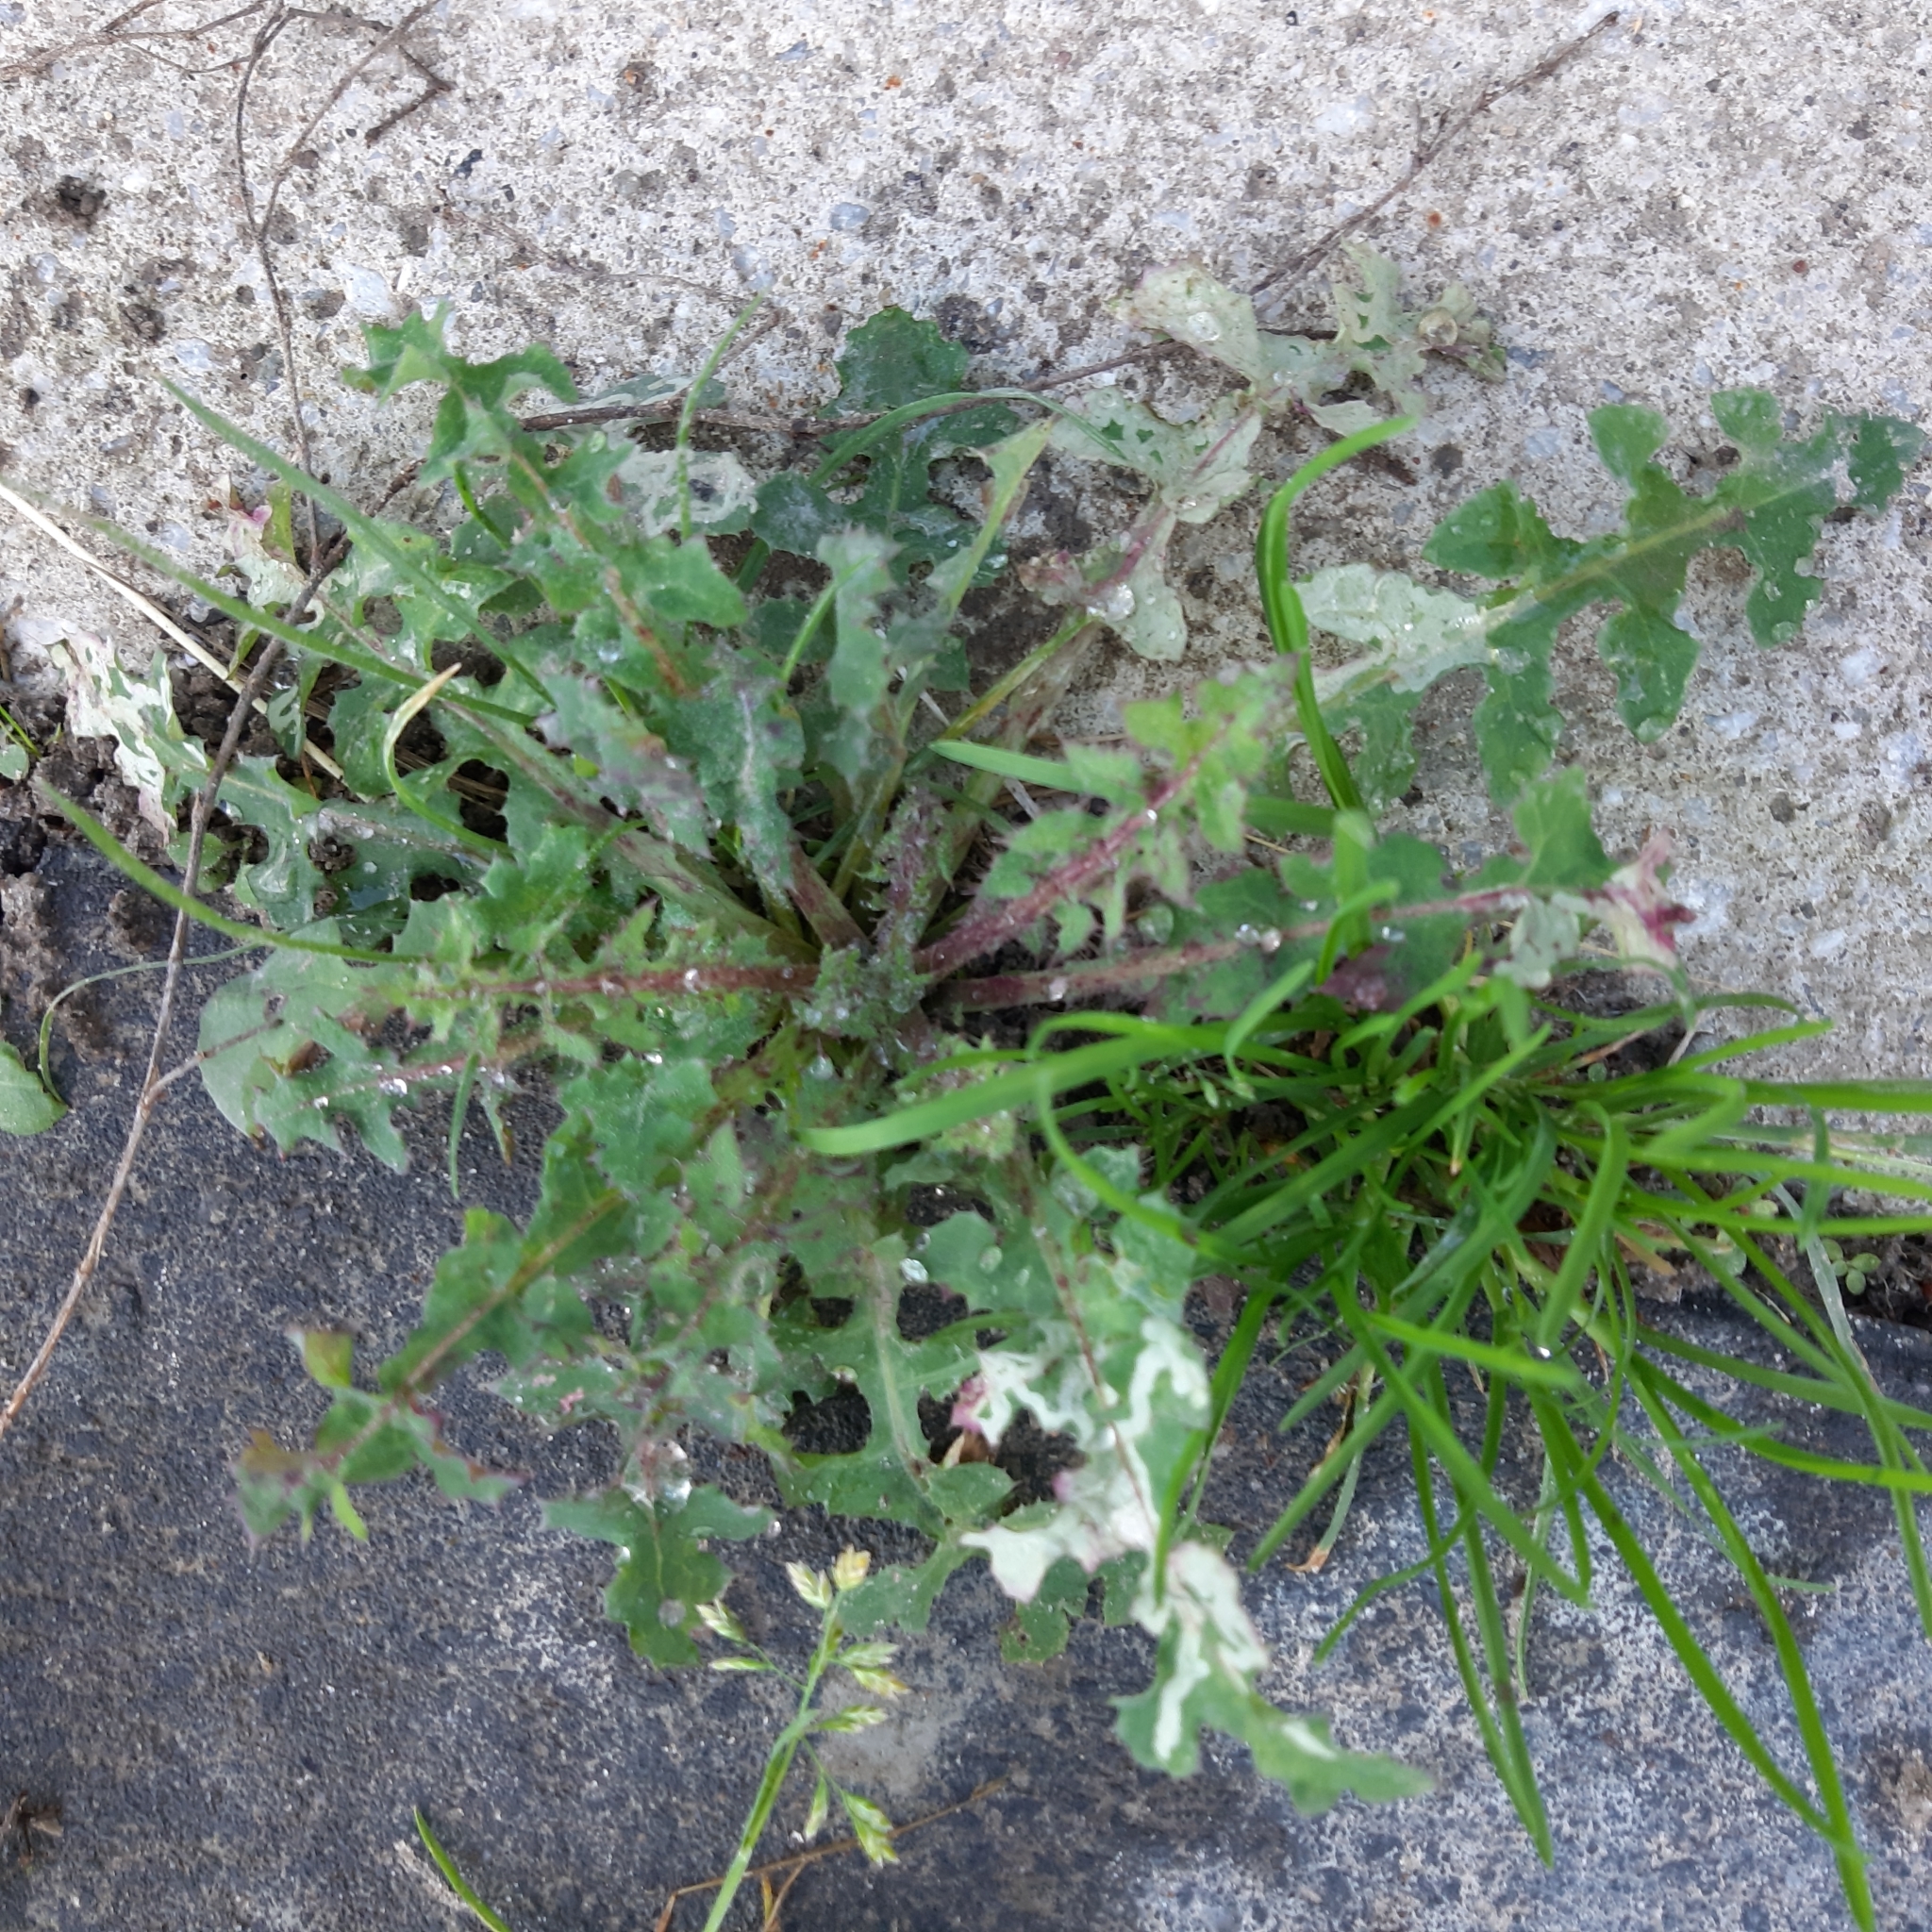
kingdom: Plantae
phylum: Tracheophyta
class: Magnoliopsida
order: Asterales
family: Asteraceae
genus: Sonchus
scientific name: Sonchus oleraceus
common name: Common sowthistle
